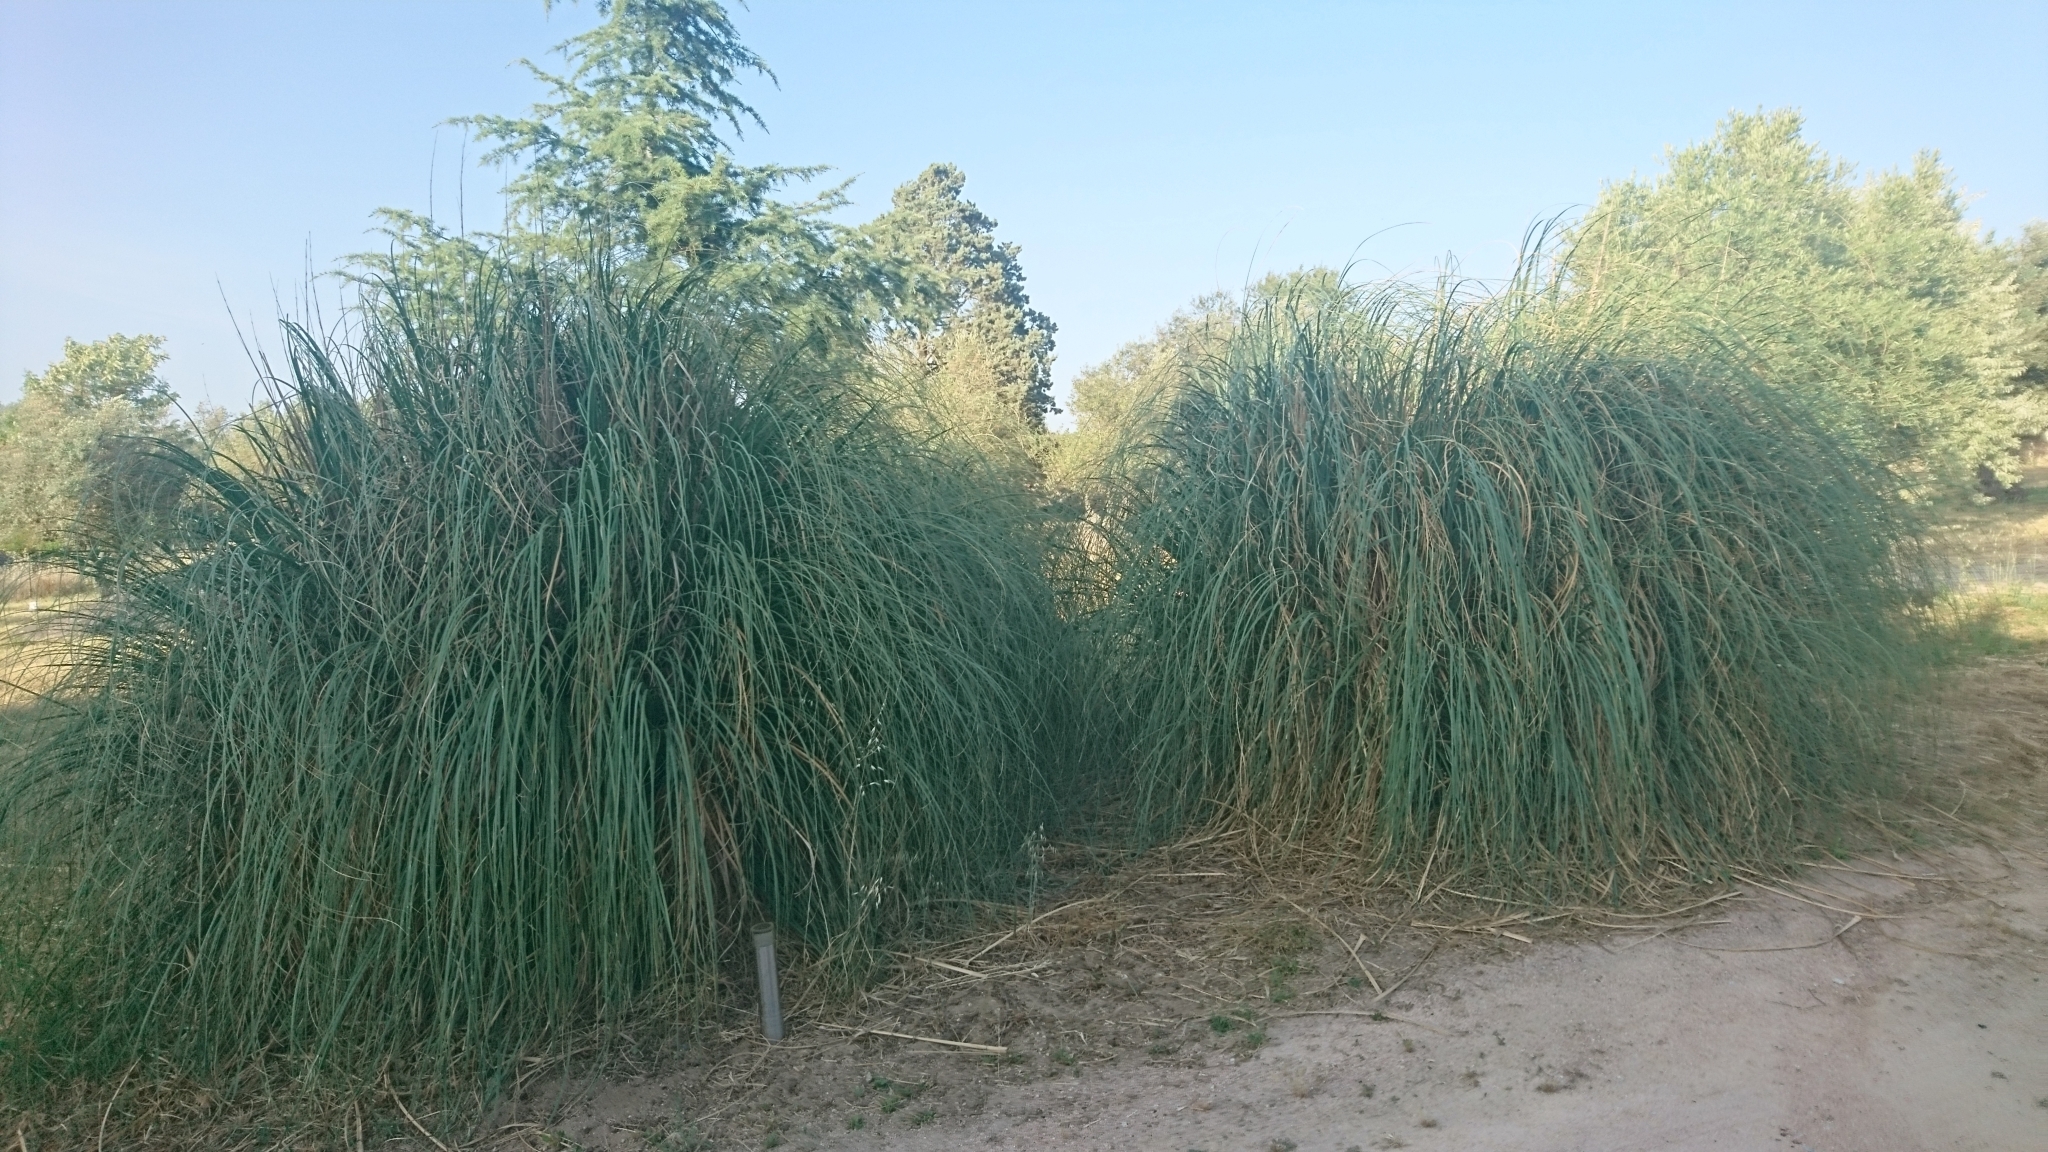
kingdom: Plantae
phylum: Tracheophyta
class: Liliopsida
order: Poales
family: Poaceae
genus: Cortaderia
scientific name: Cortaderia selloana
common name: Uruguayan pampas grass
